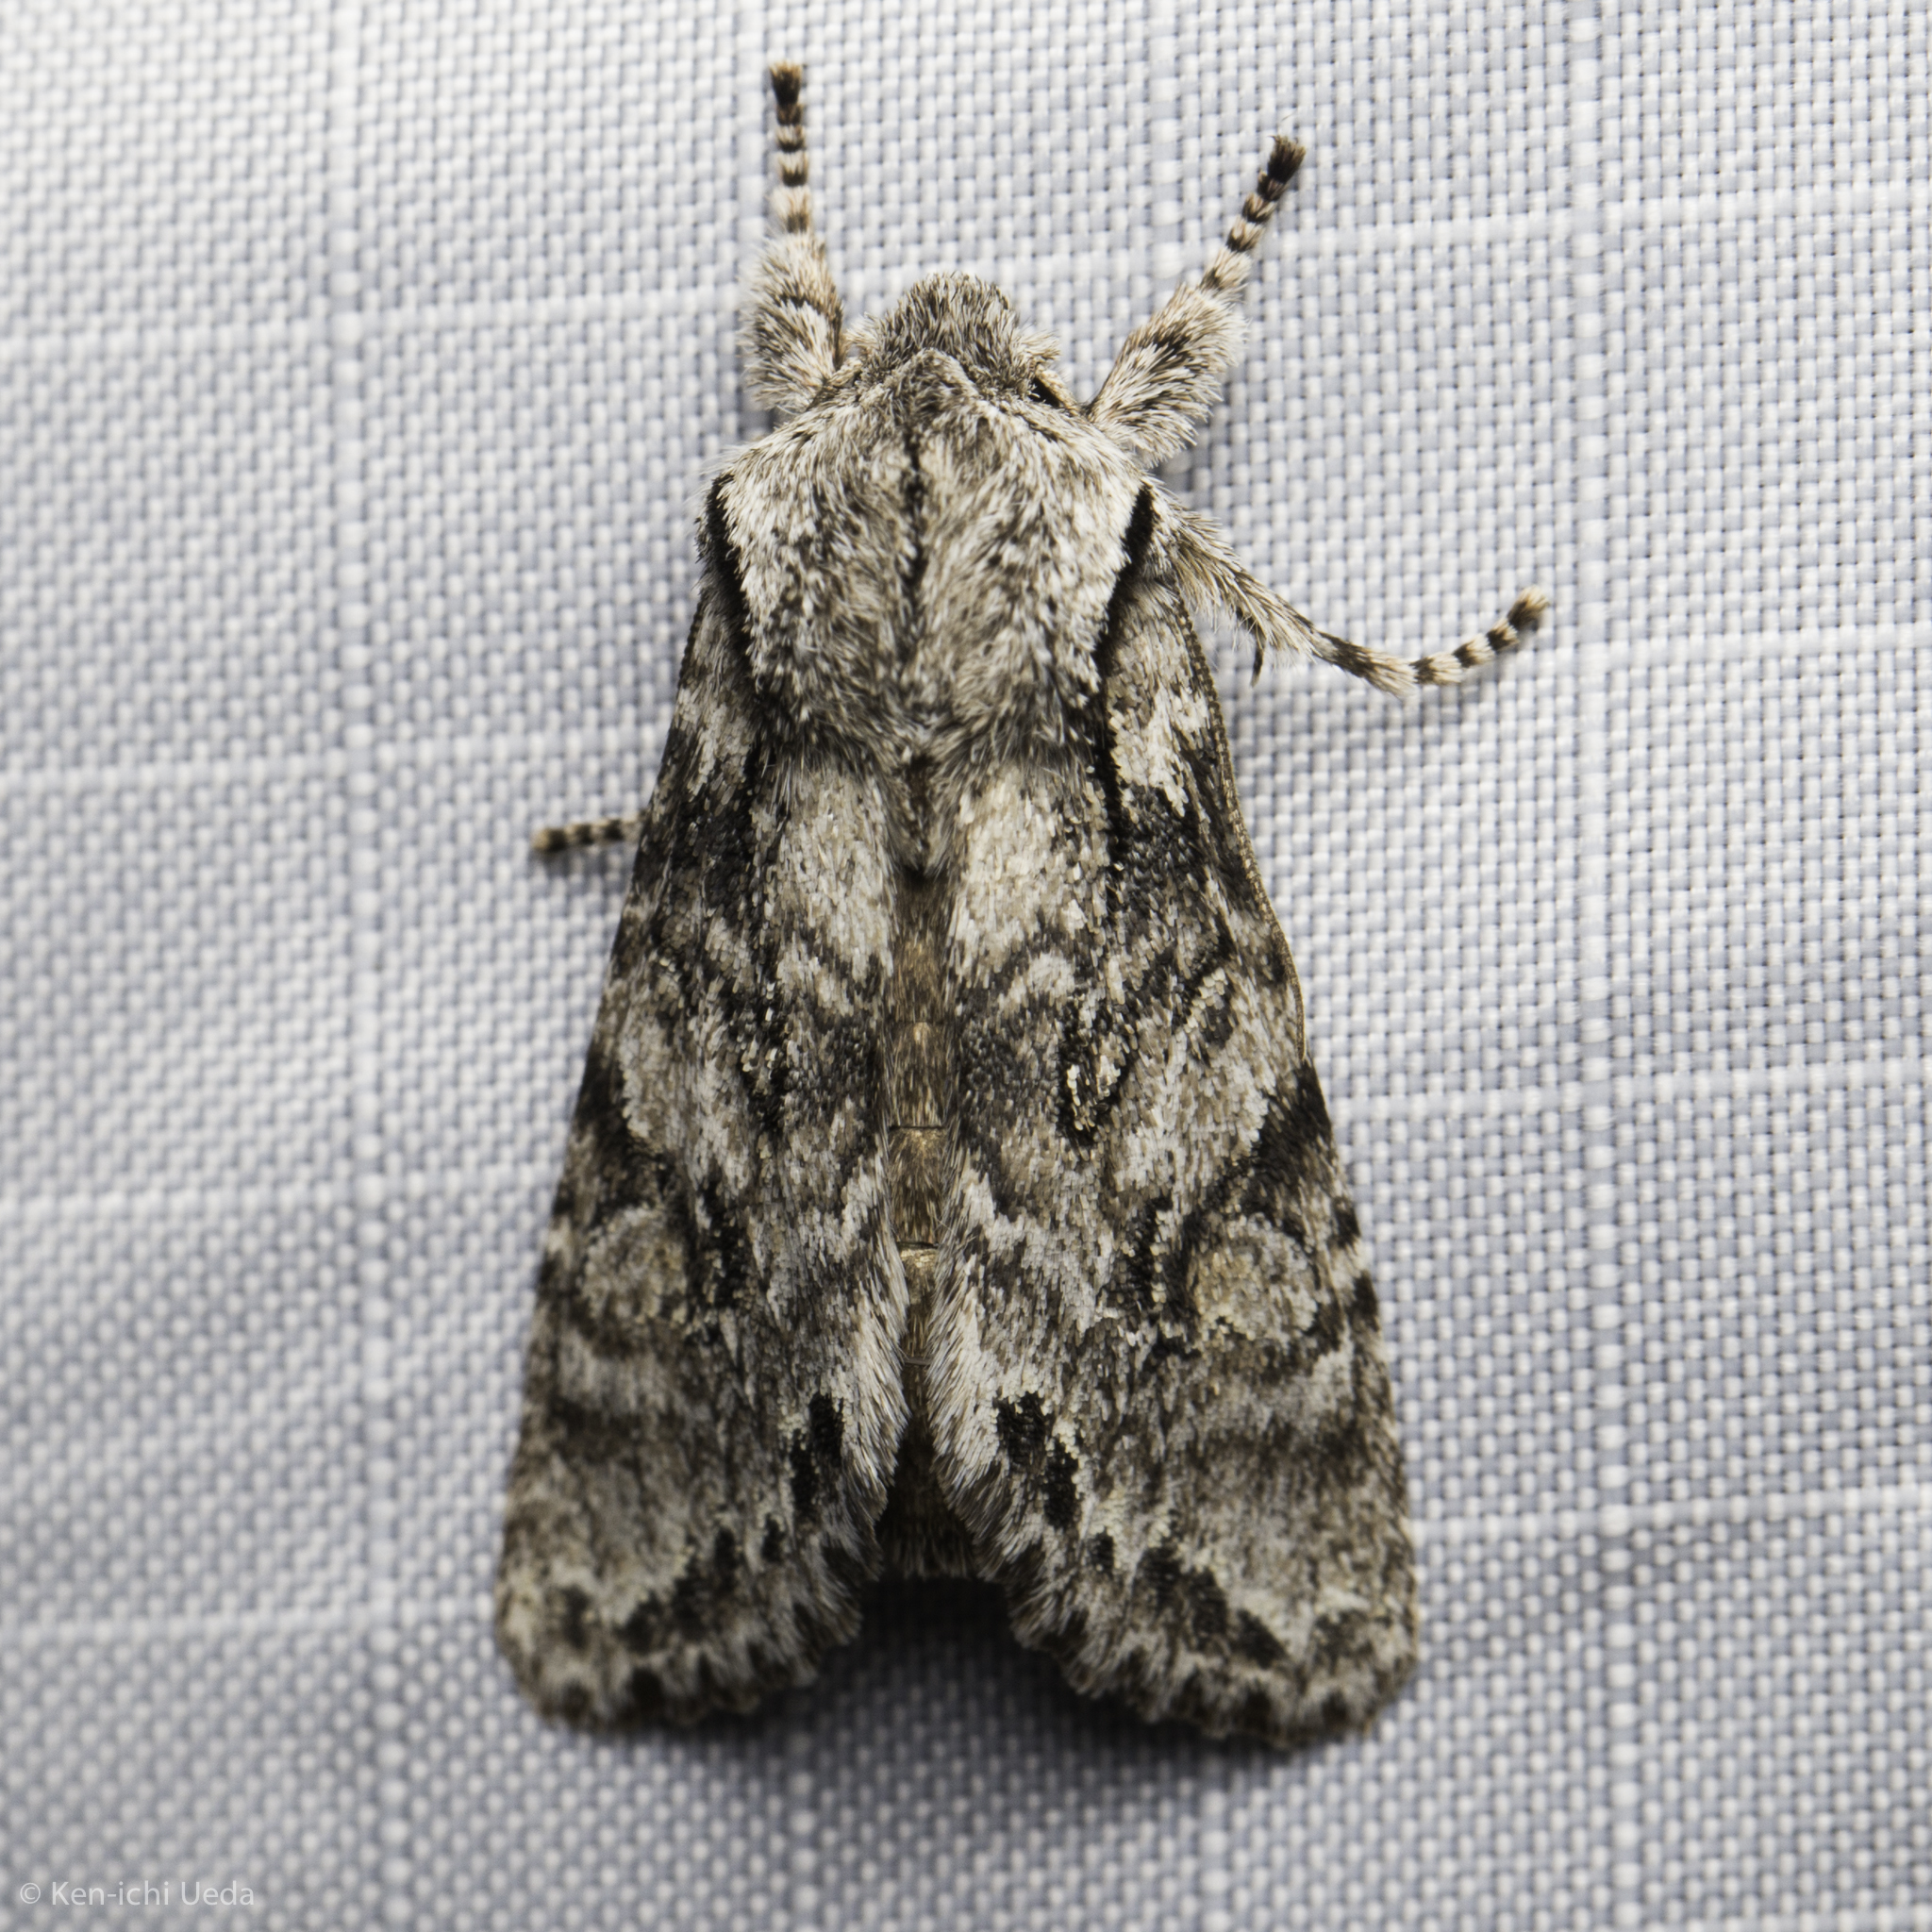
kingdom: Animalia
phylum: Arthropoda
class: Insecta
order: Lepidoptera
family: Noctuidae
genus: Egira
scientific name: Egira simplex
